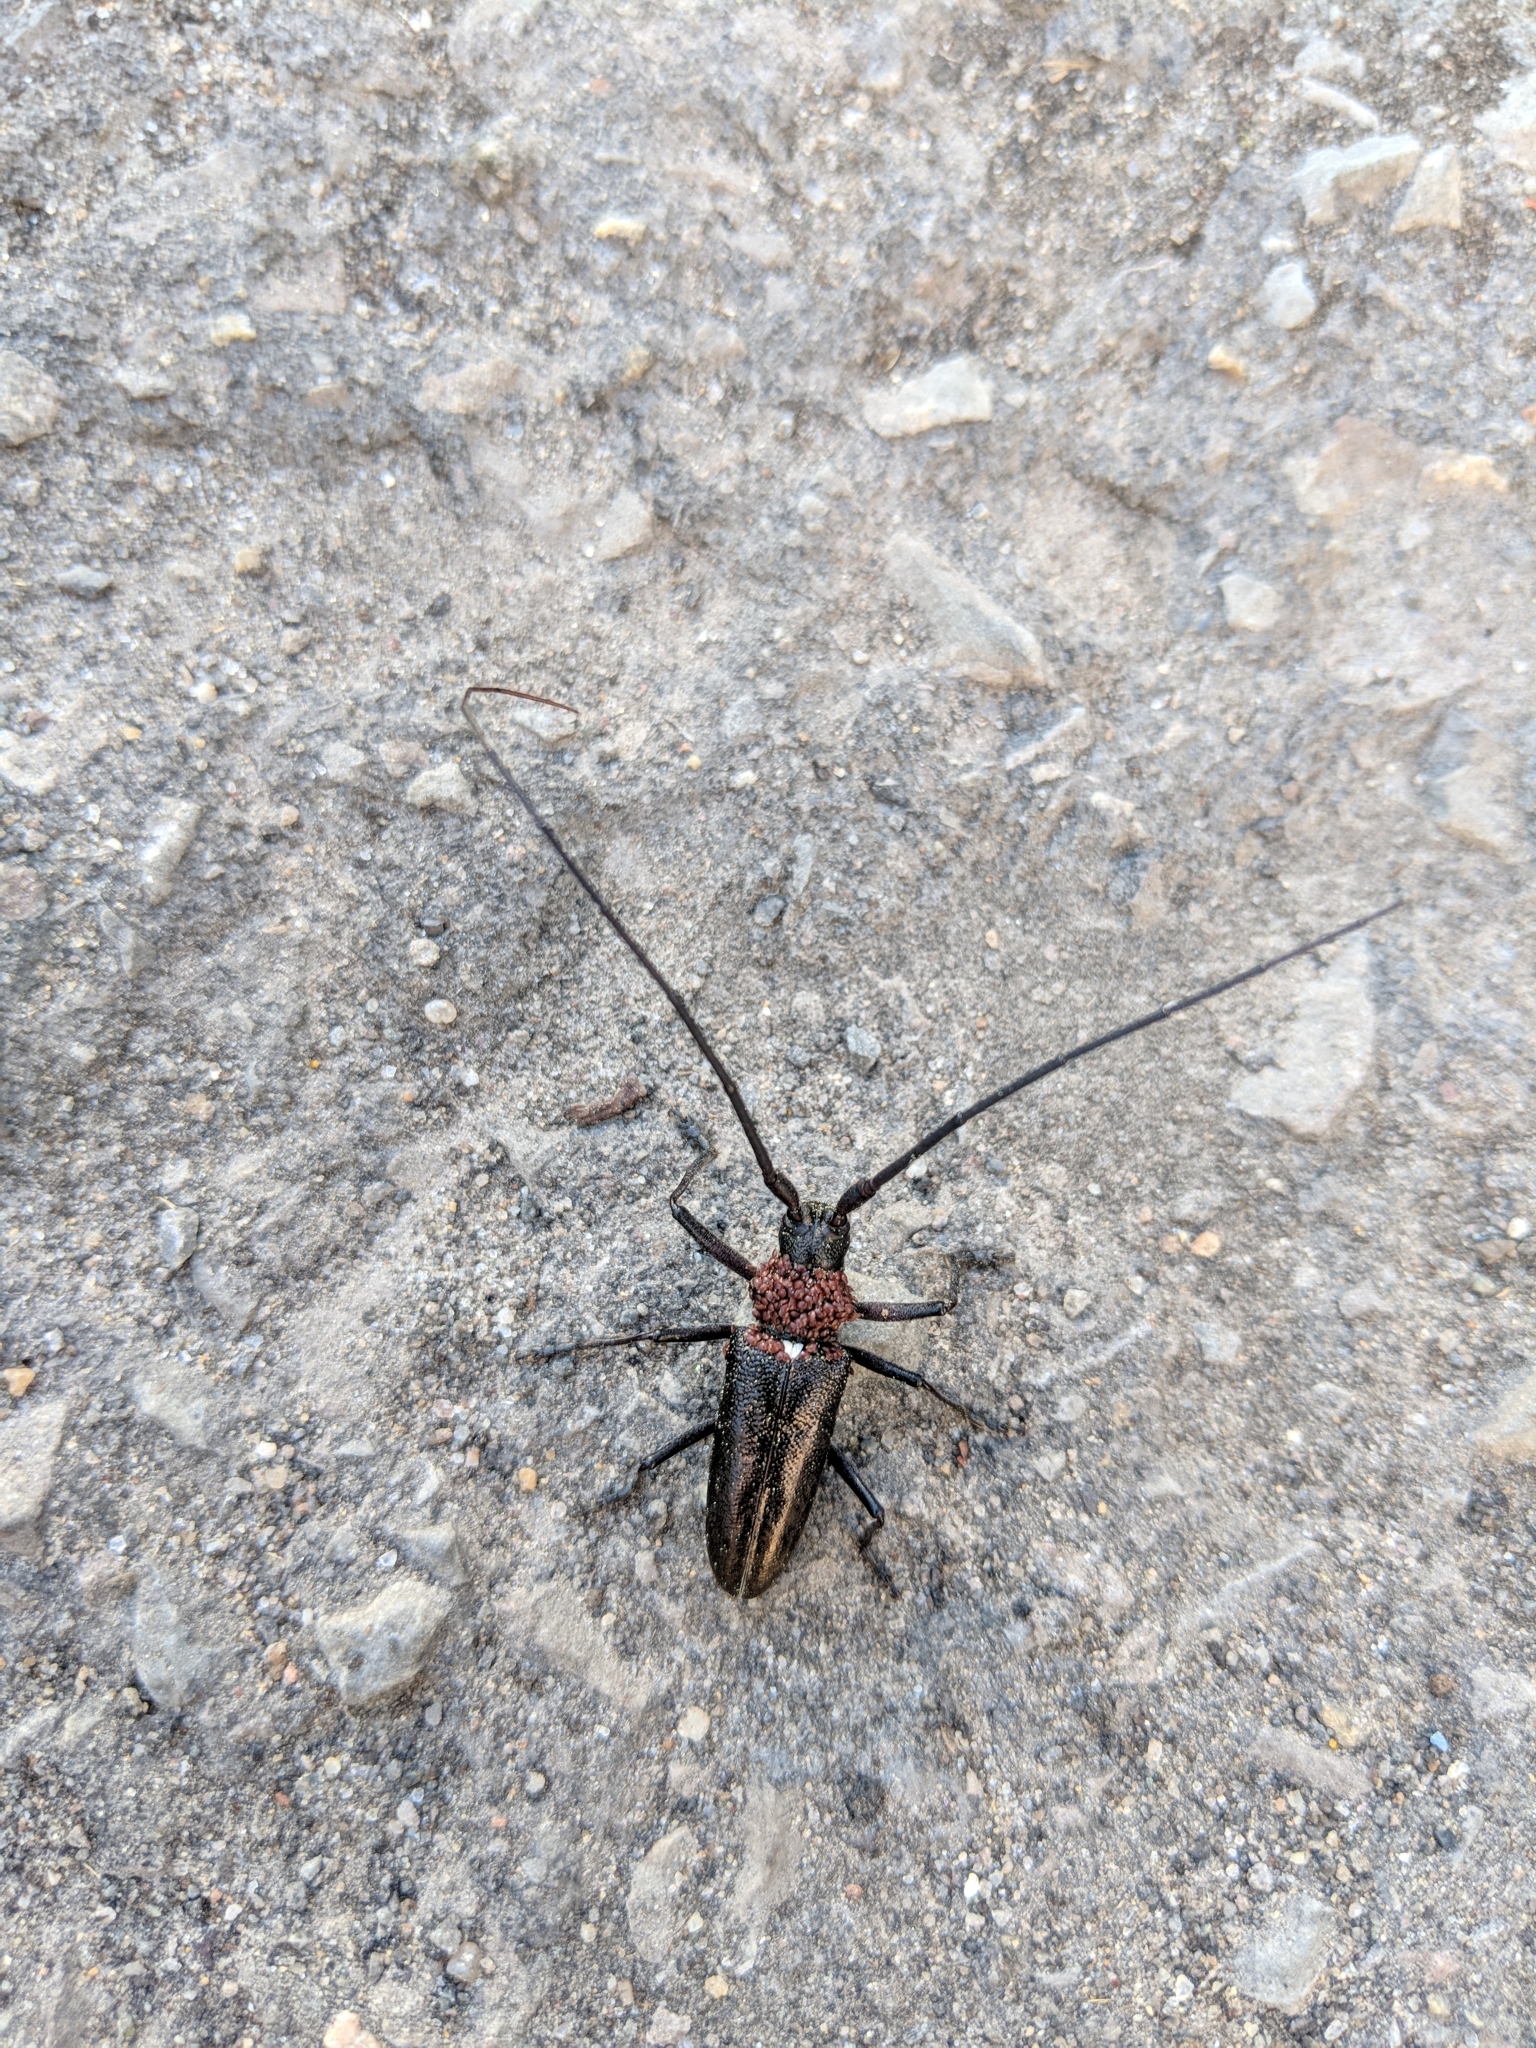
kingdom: Animalia
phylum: Arthropoda
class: Insecta
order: Coleoptera
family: Cerambycidae
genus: Monochamus
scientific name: Monochamus scutellatus
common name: White-spotted sawyer beetle
